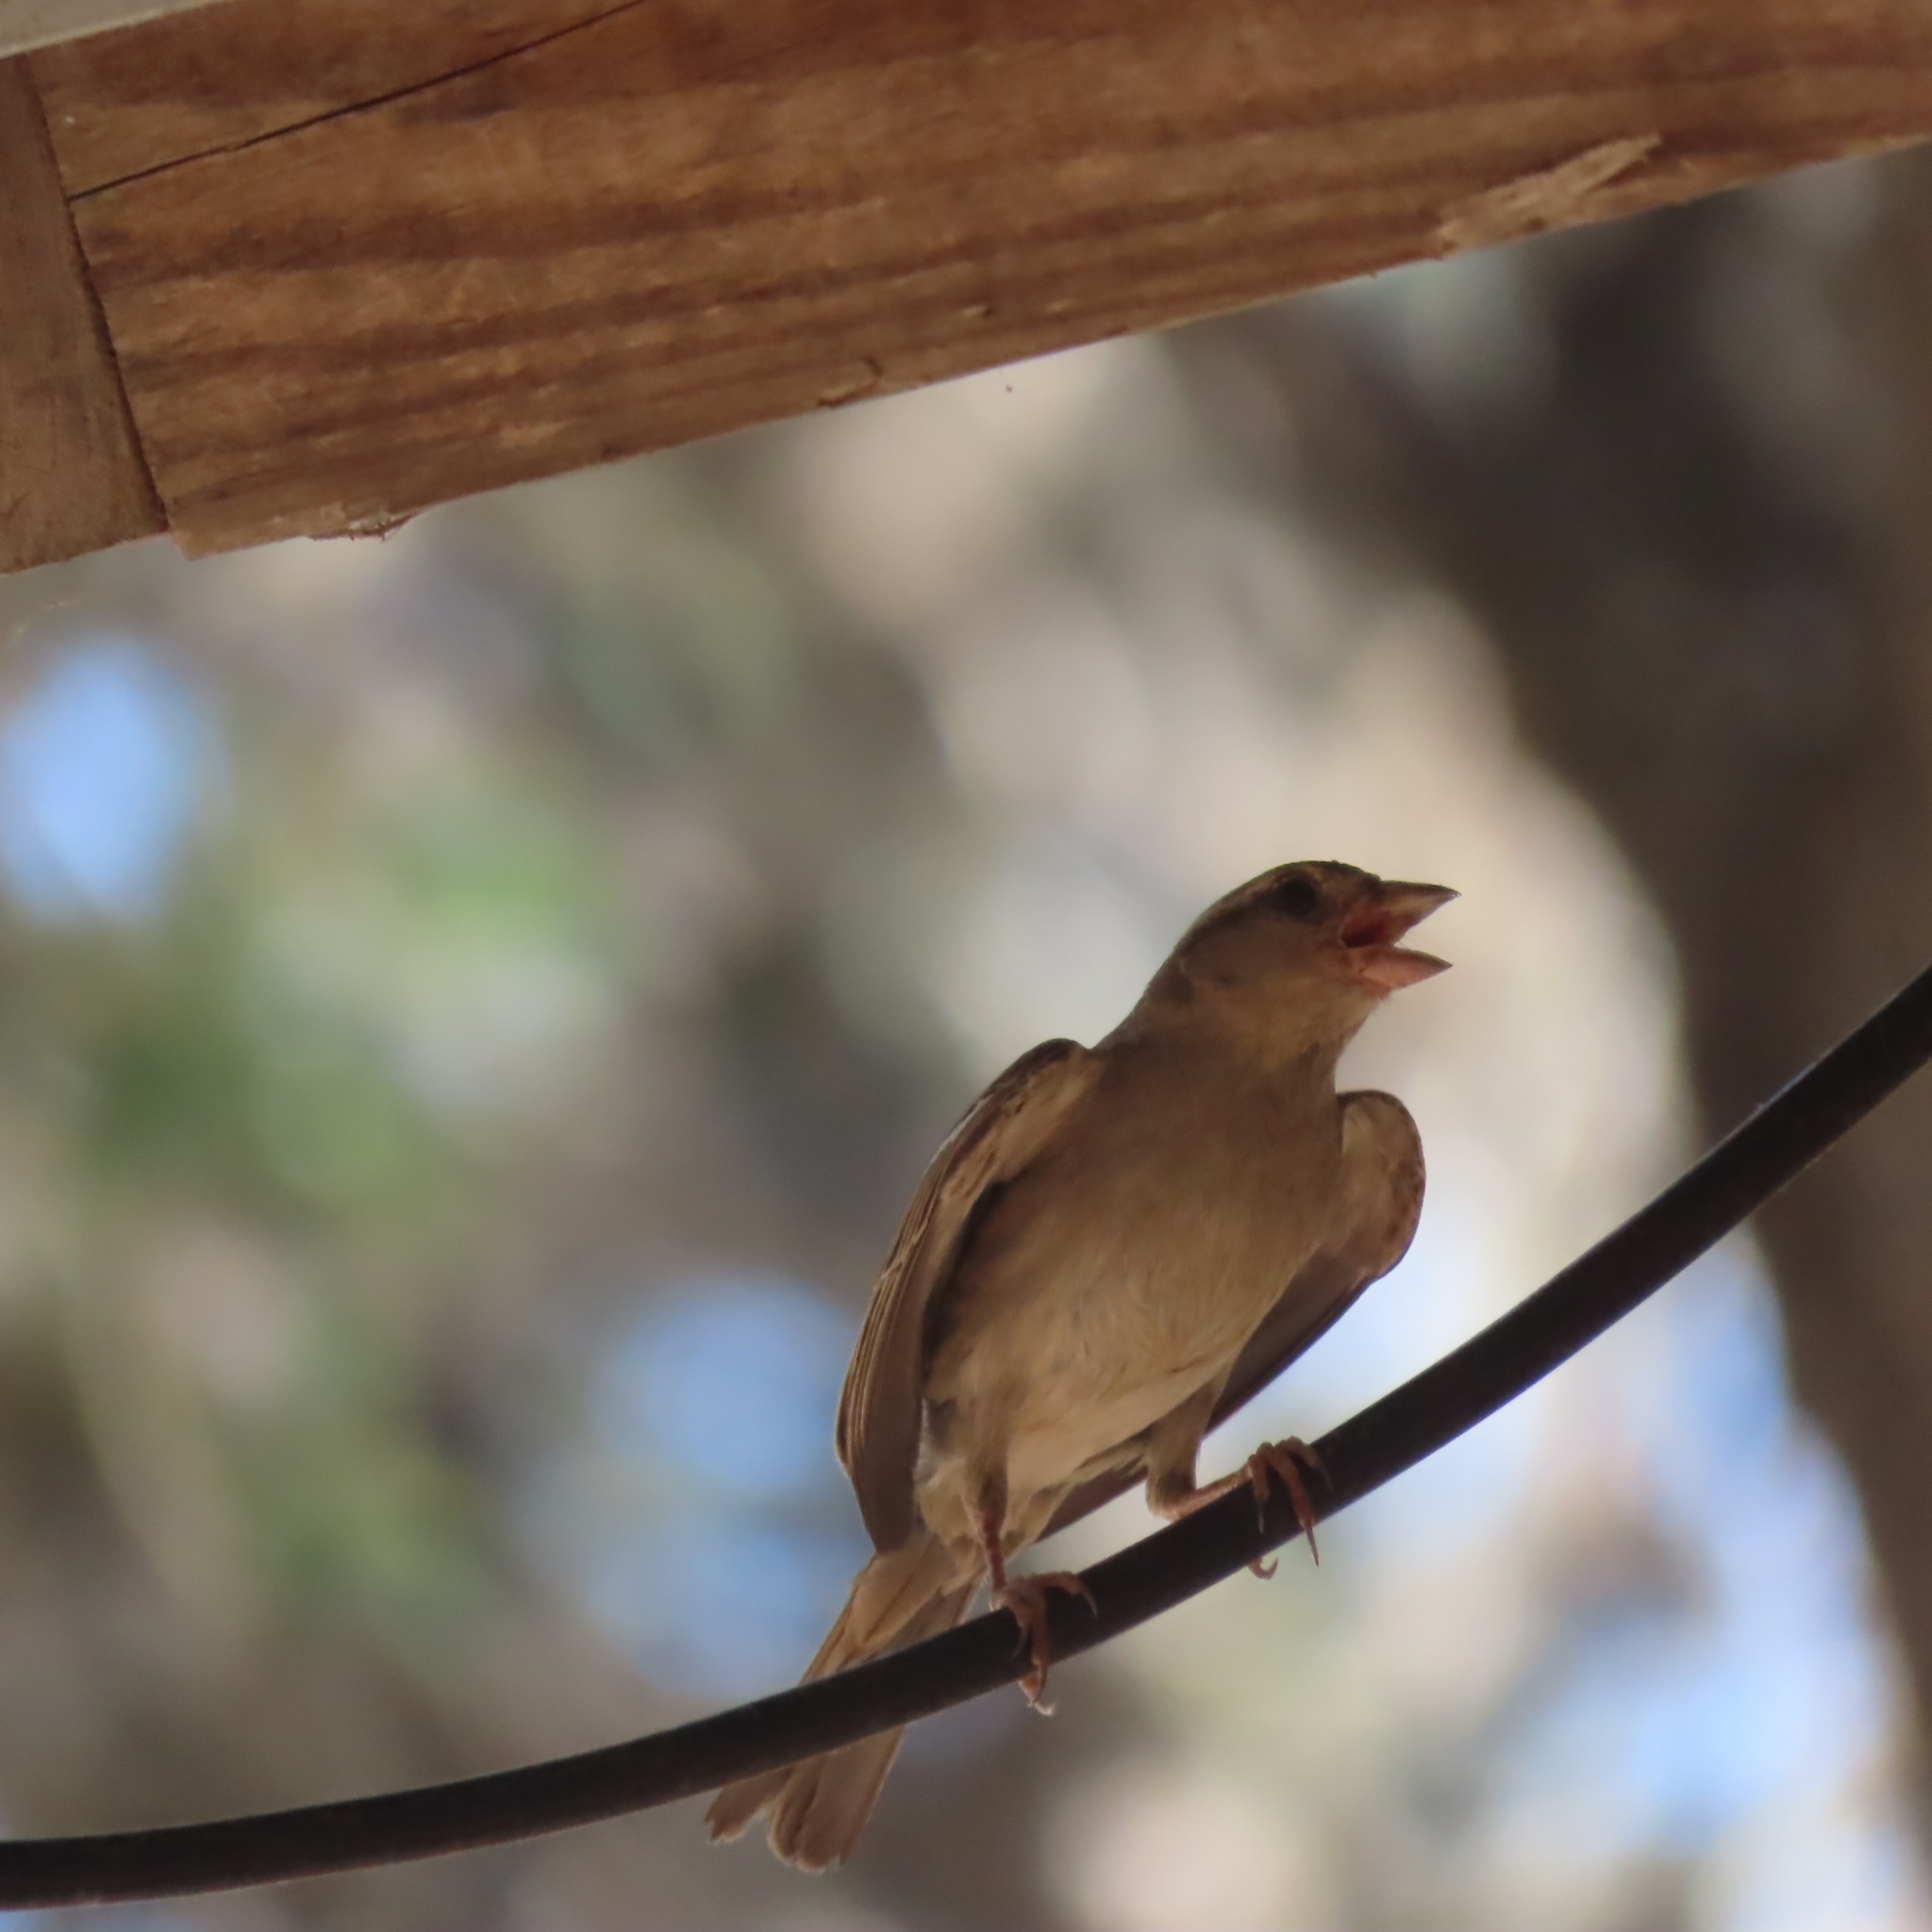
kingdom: Animalia
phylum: Chordata
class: Aves
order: Passeriformes
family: Passeridae
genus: Passer
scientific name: Passer domesticus
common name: House sparrow
